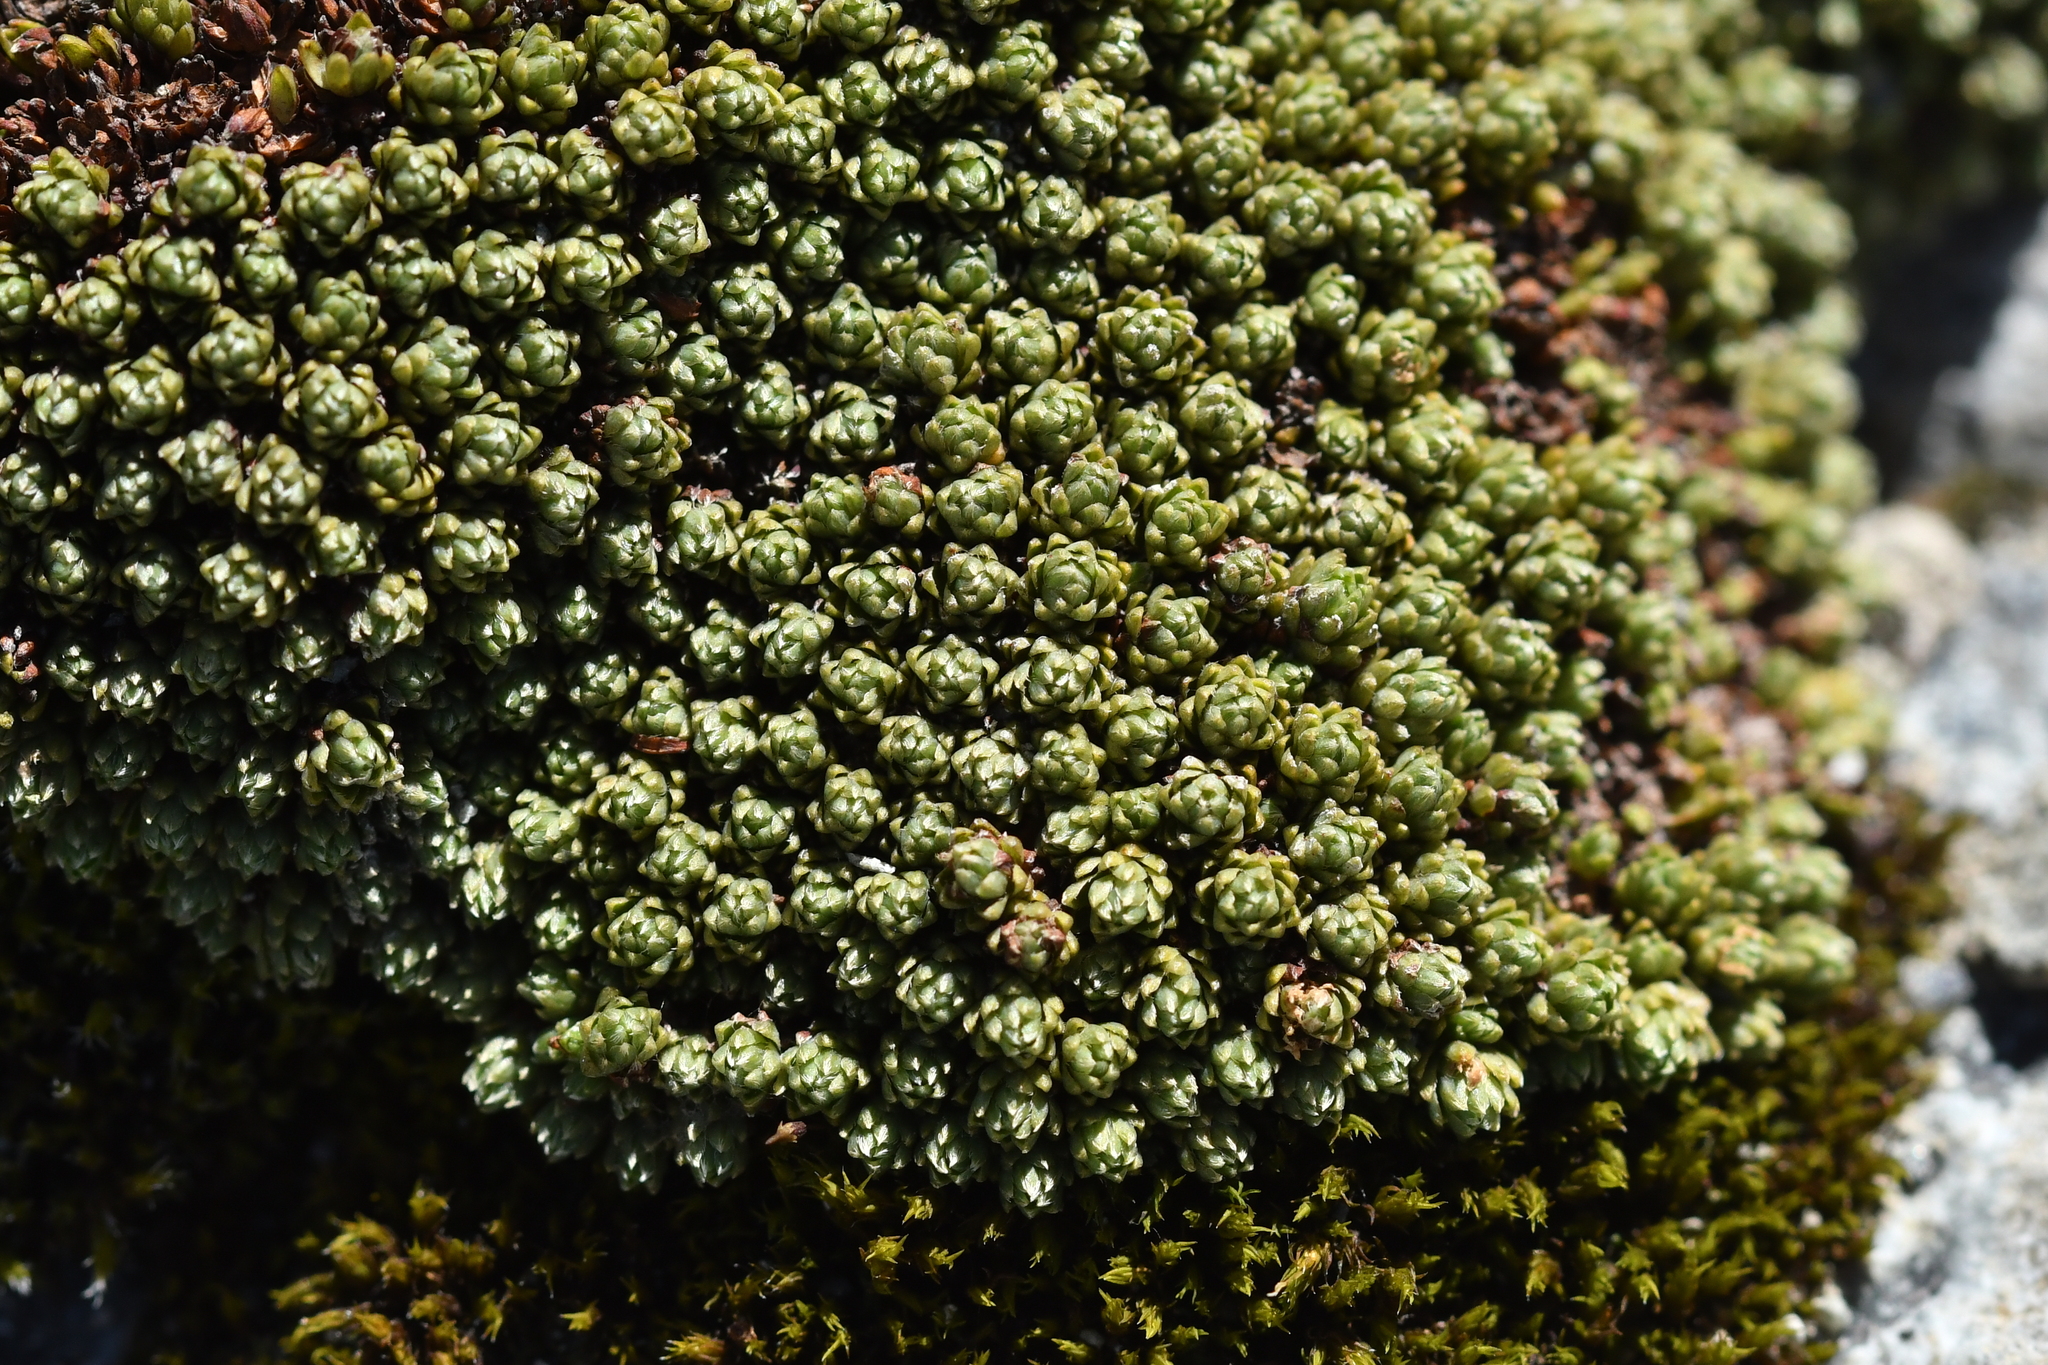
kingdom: Plantae
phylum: Tracheophyta
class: Magnoliopsida
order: Malvales
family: Thymelaeaceae
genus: Kelleria
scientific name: Kelleria croizatii
